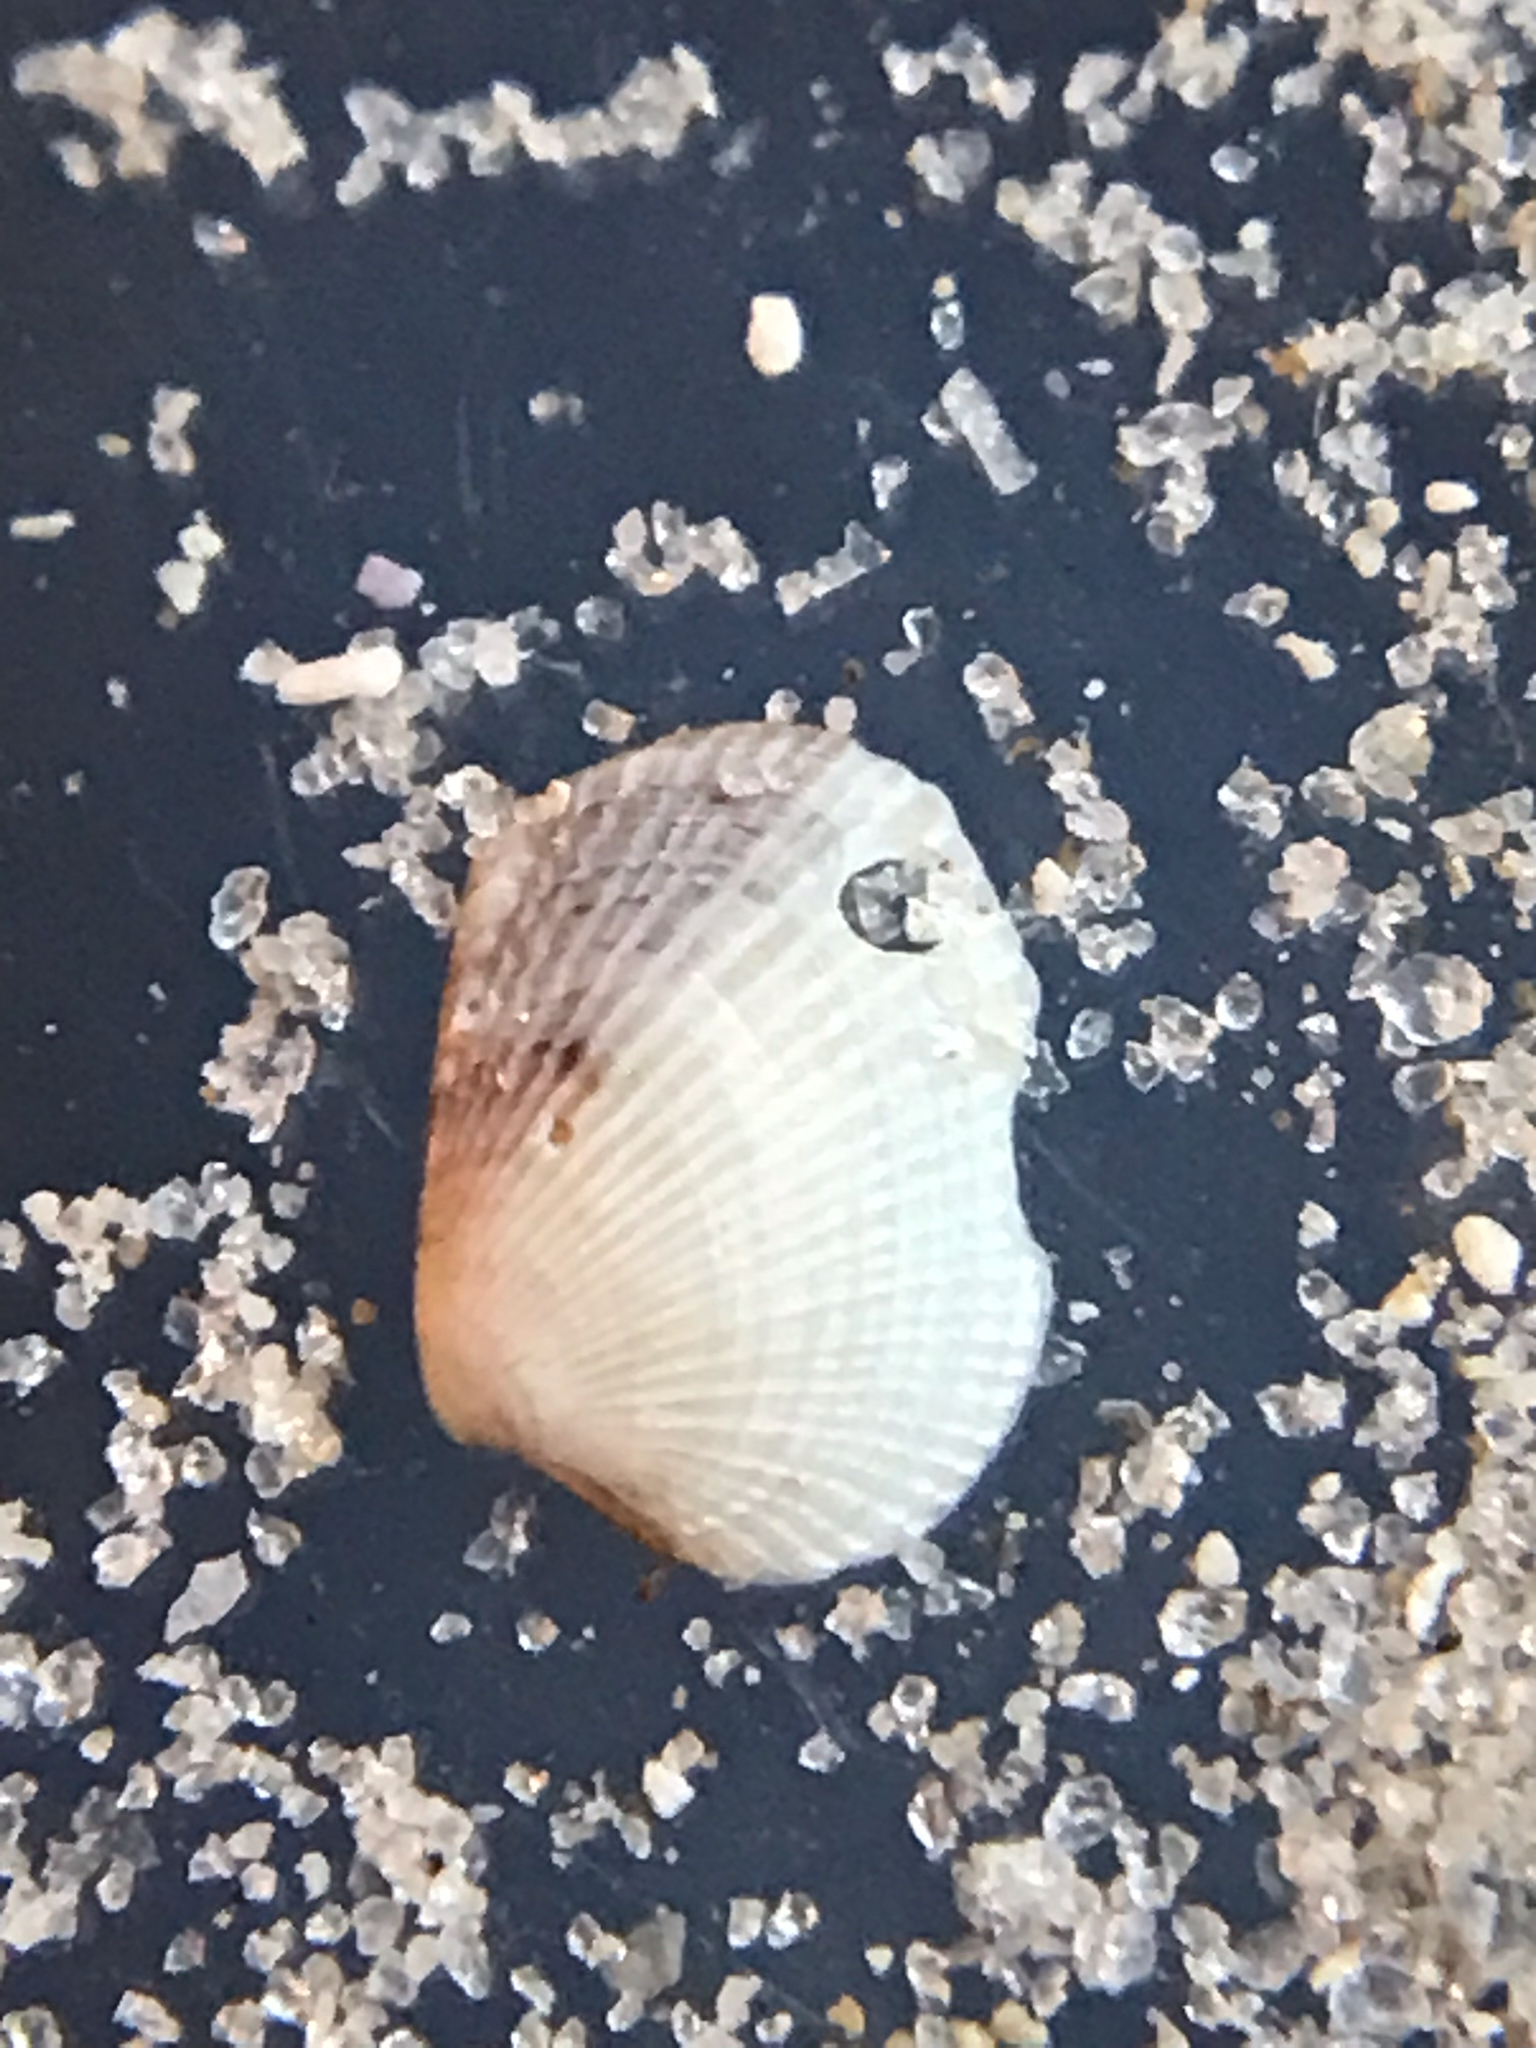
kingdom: Animalia
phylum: Mollusca
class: Bivalvia
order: Venerida
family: Veneridae
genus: Chioneryx
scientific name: Chioneryx grus
